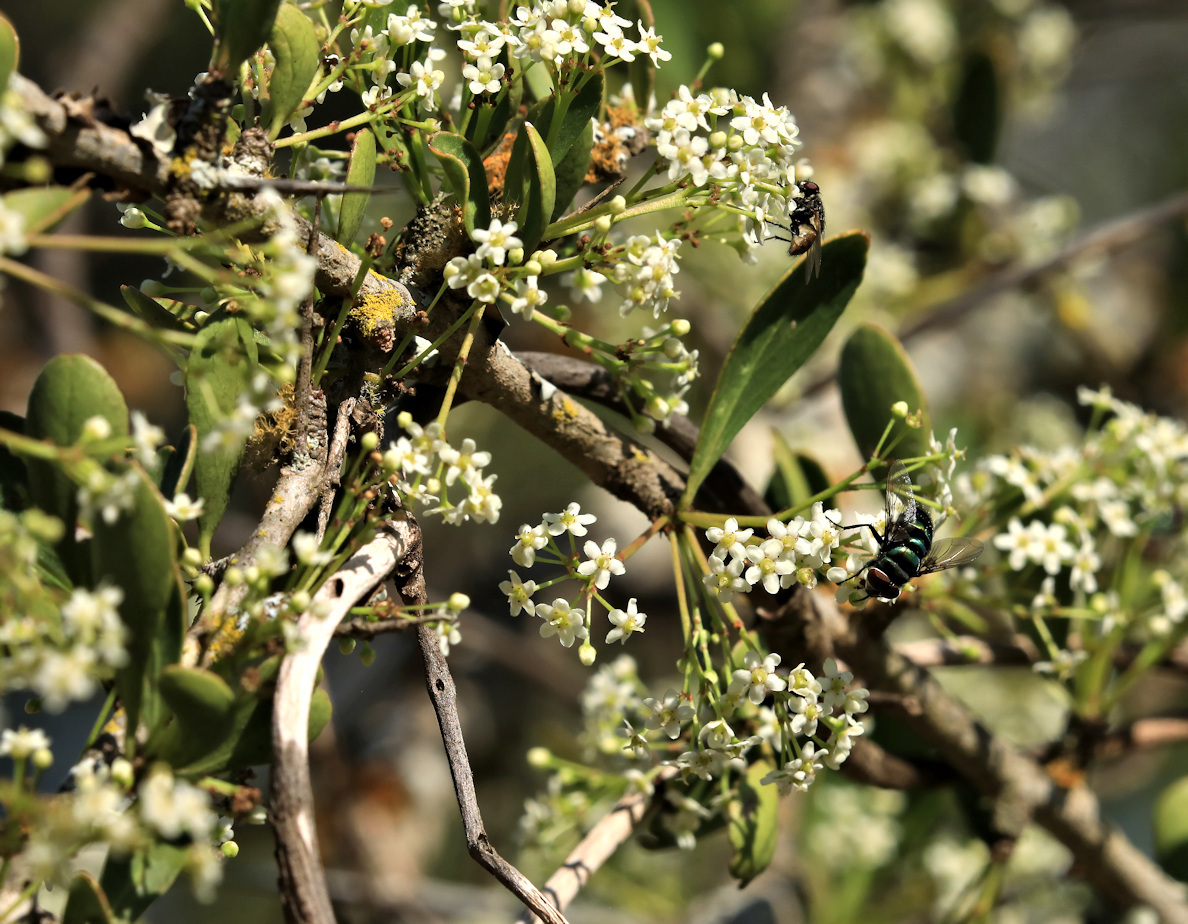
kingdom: Plantae
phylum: Tracheophyta
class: Magnoliopsida
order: Celastrales
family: Celastraceae
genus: Gymnosporia
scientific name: Gymnosporia maranguensis
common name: Tropical spike-thorn
